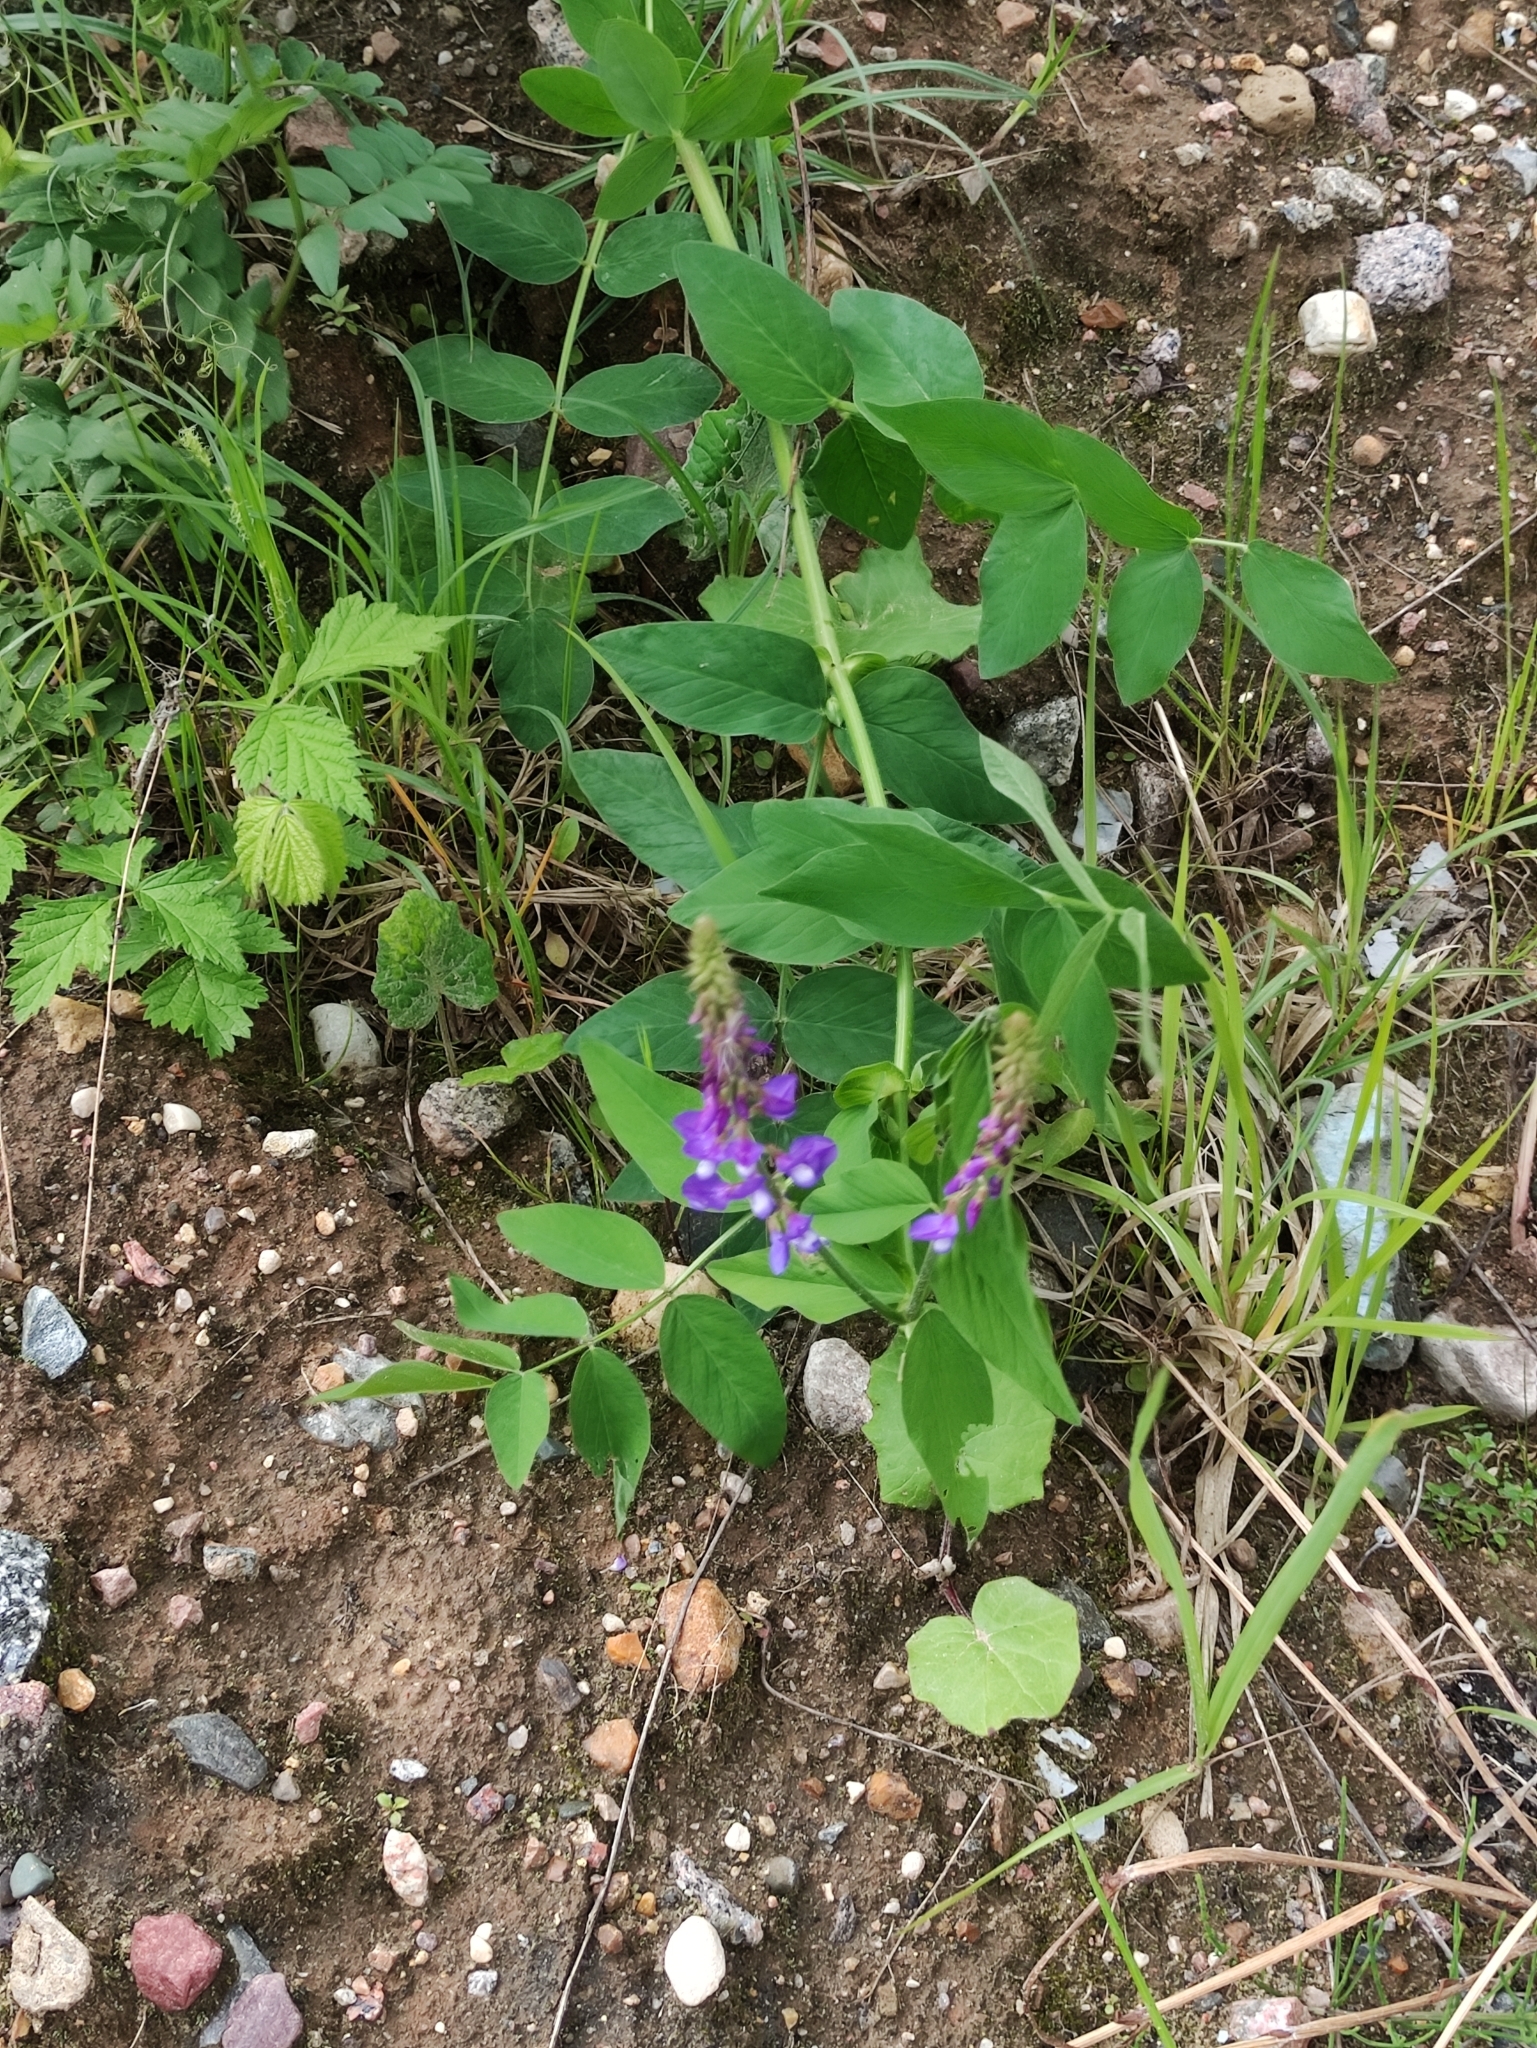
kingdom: Plantae
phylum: Tracheophyta
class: Magnoliopsida
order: Fabales
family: Fabaceae
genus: Galega
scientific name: Galega orientalis
